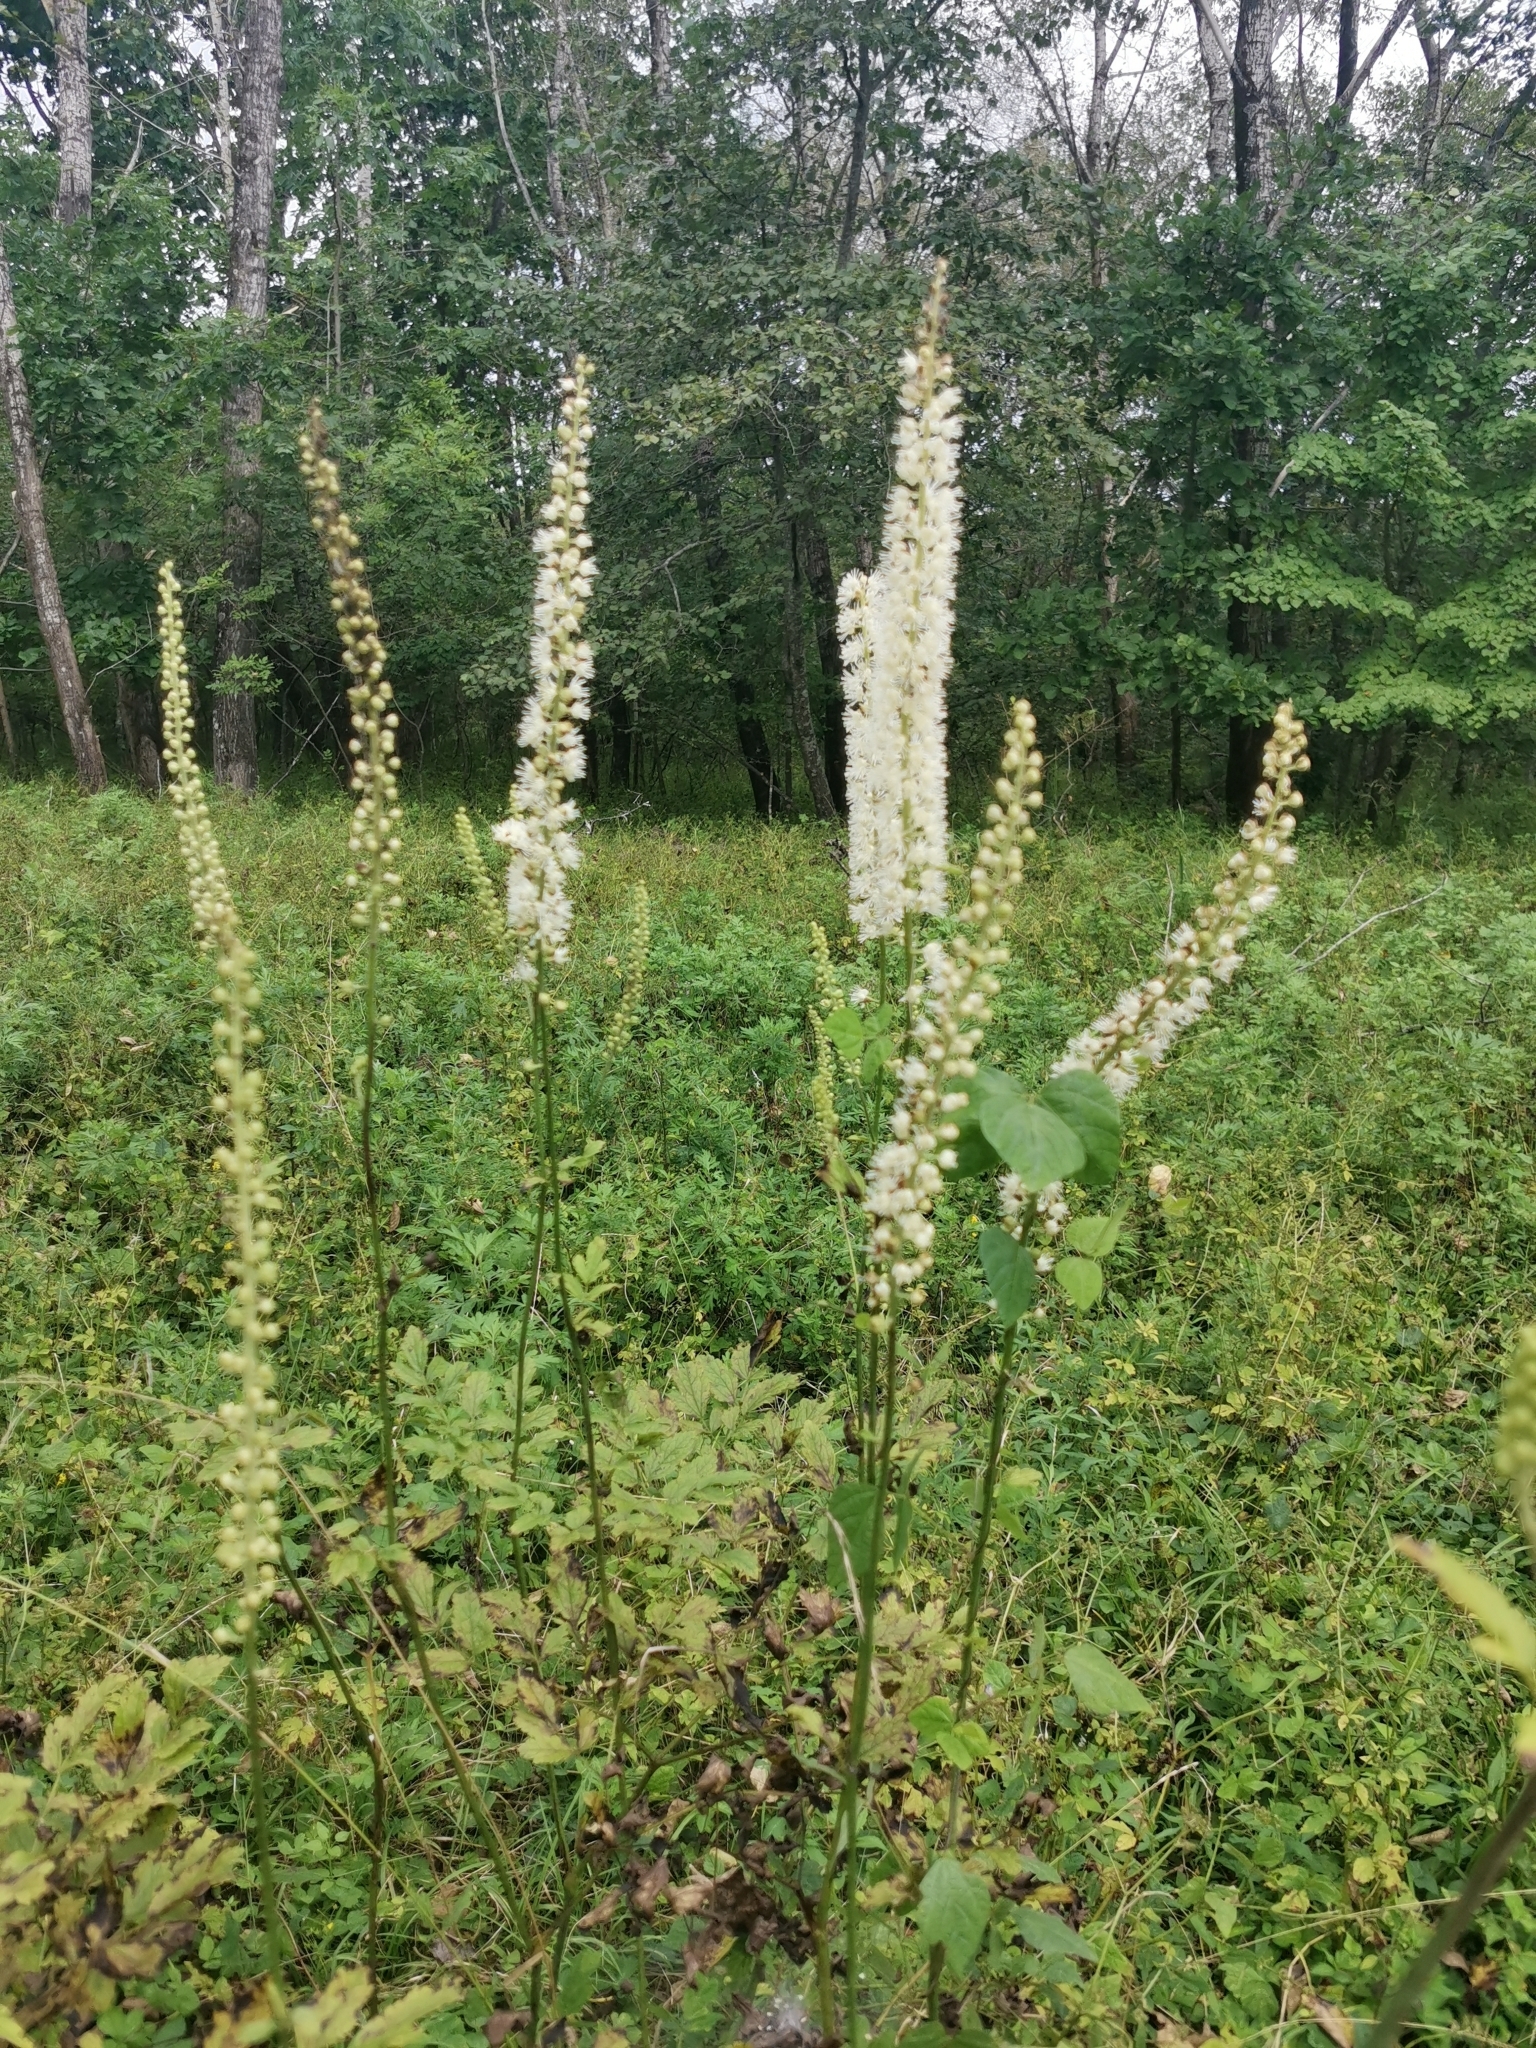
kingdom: Plantae
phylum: Tracheophyta
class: Magnoliopsida
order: Ranunculales
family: Ranunculaceae
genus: Actaea
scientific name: Actaea simplex
